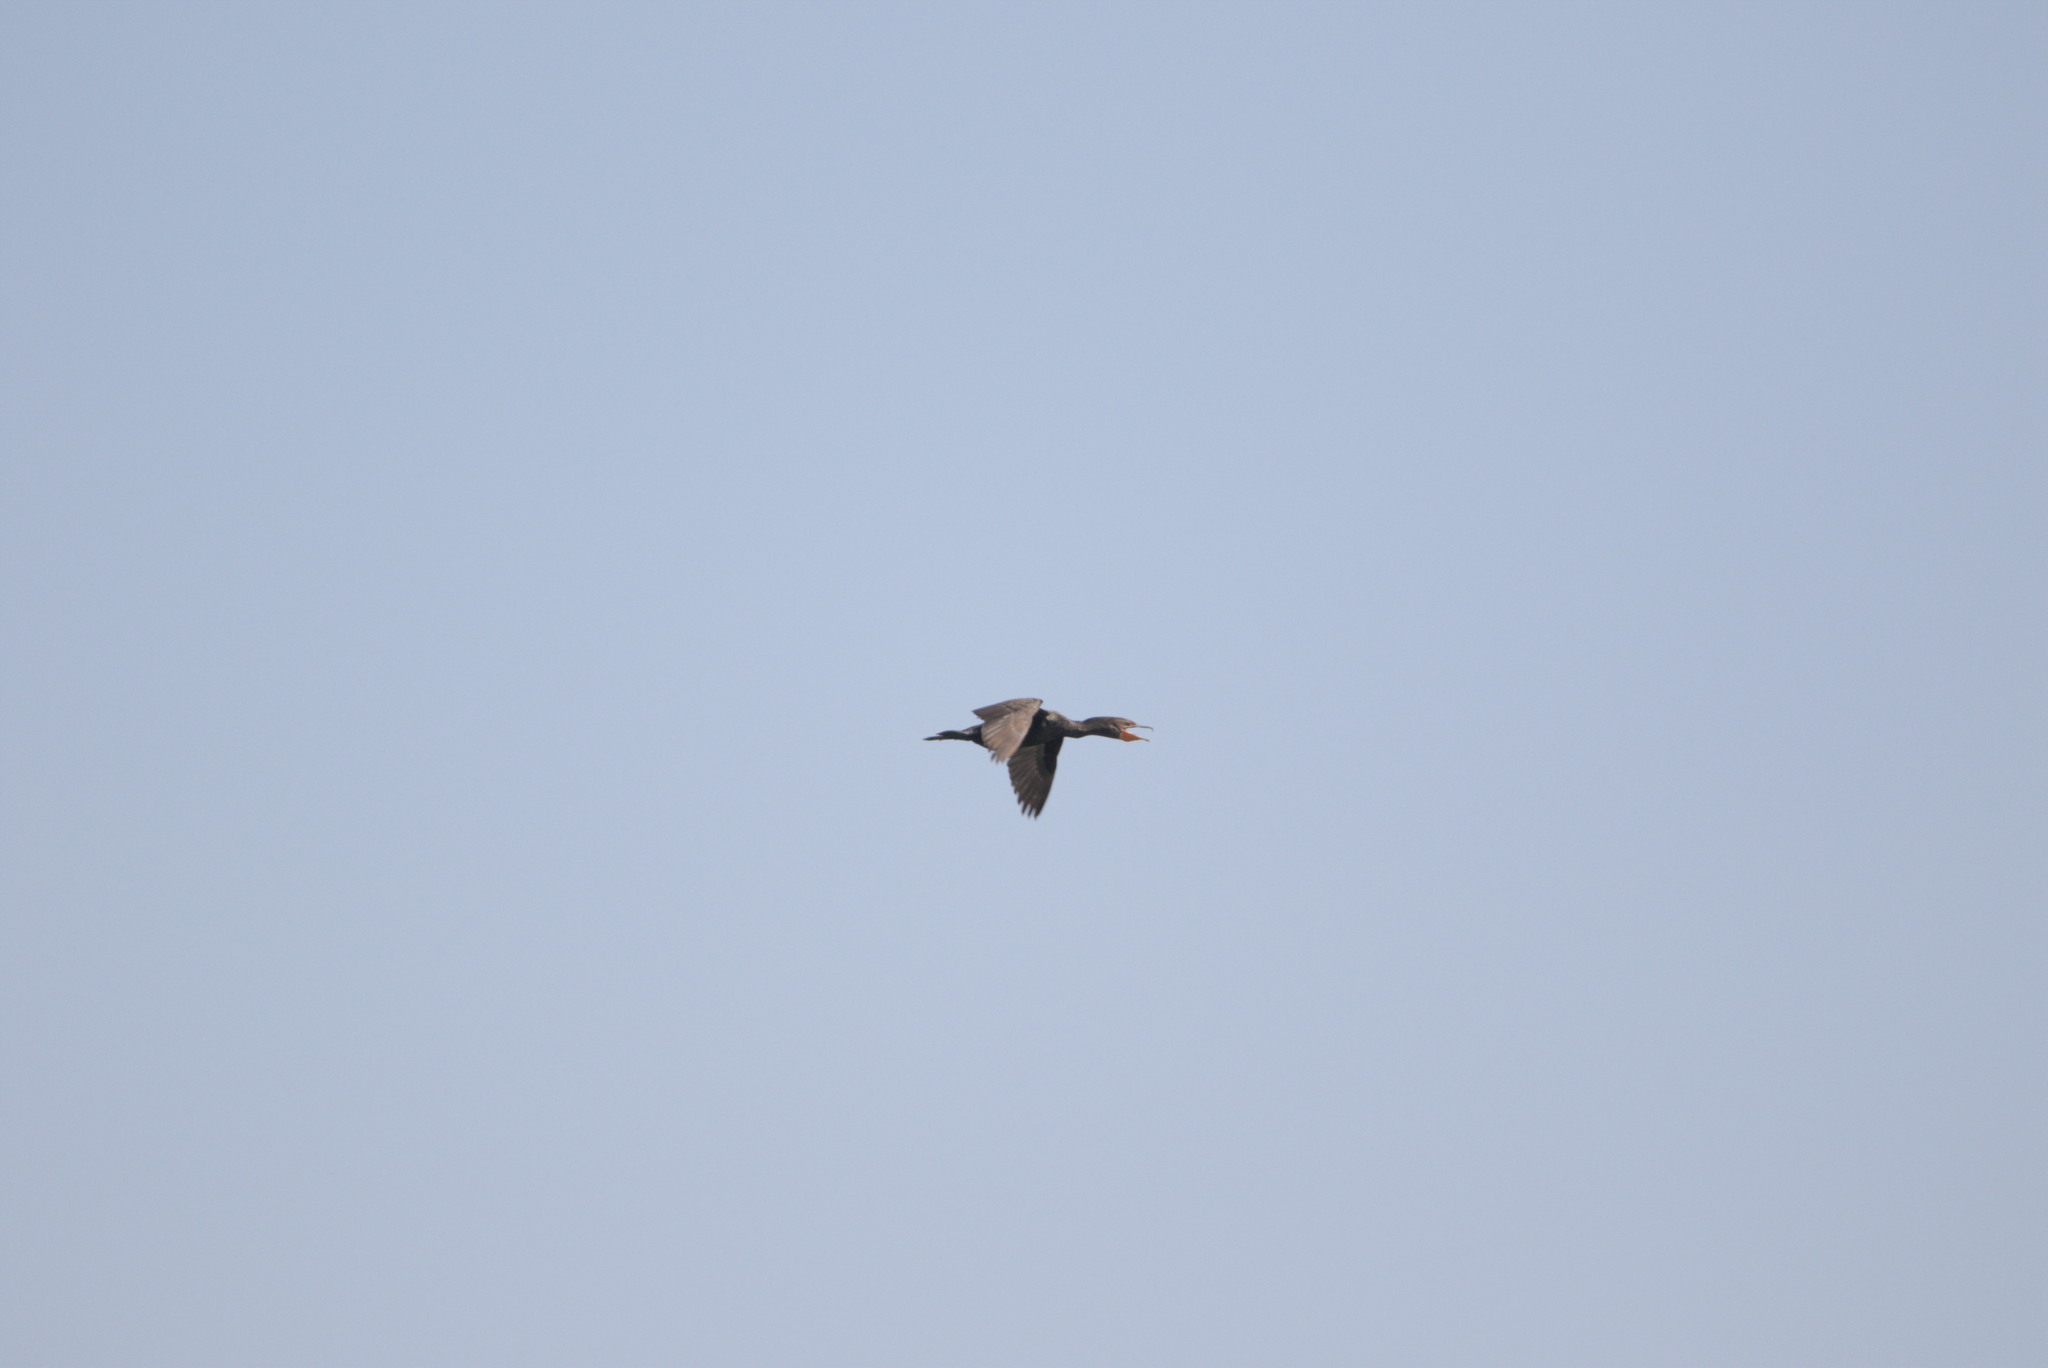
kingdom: Animalia
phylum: Chordata
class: Aves
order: Suliformes
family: Phalacrocoracidae
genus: Phalacrocorax
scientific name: Phalacrocorax auritus
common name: Double-crested cormorant
